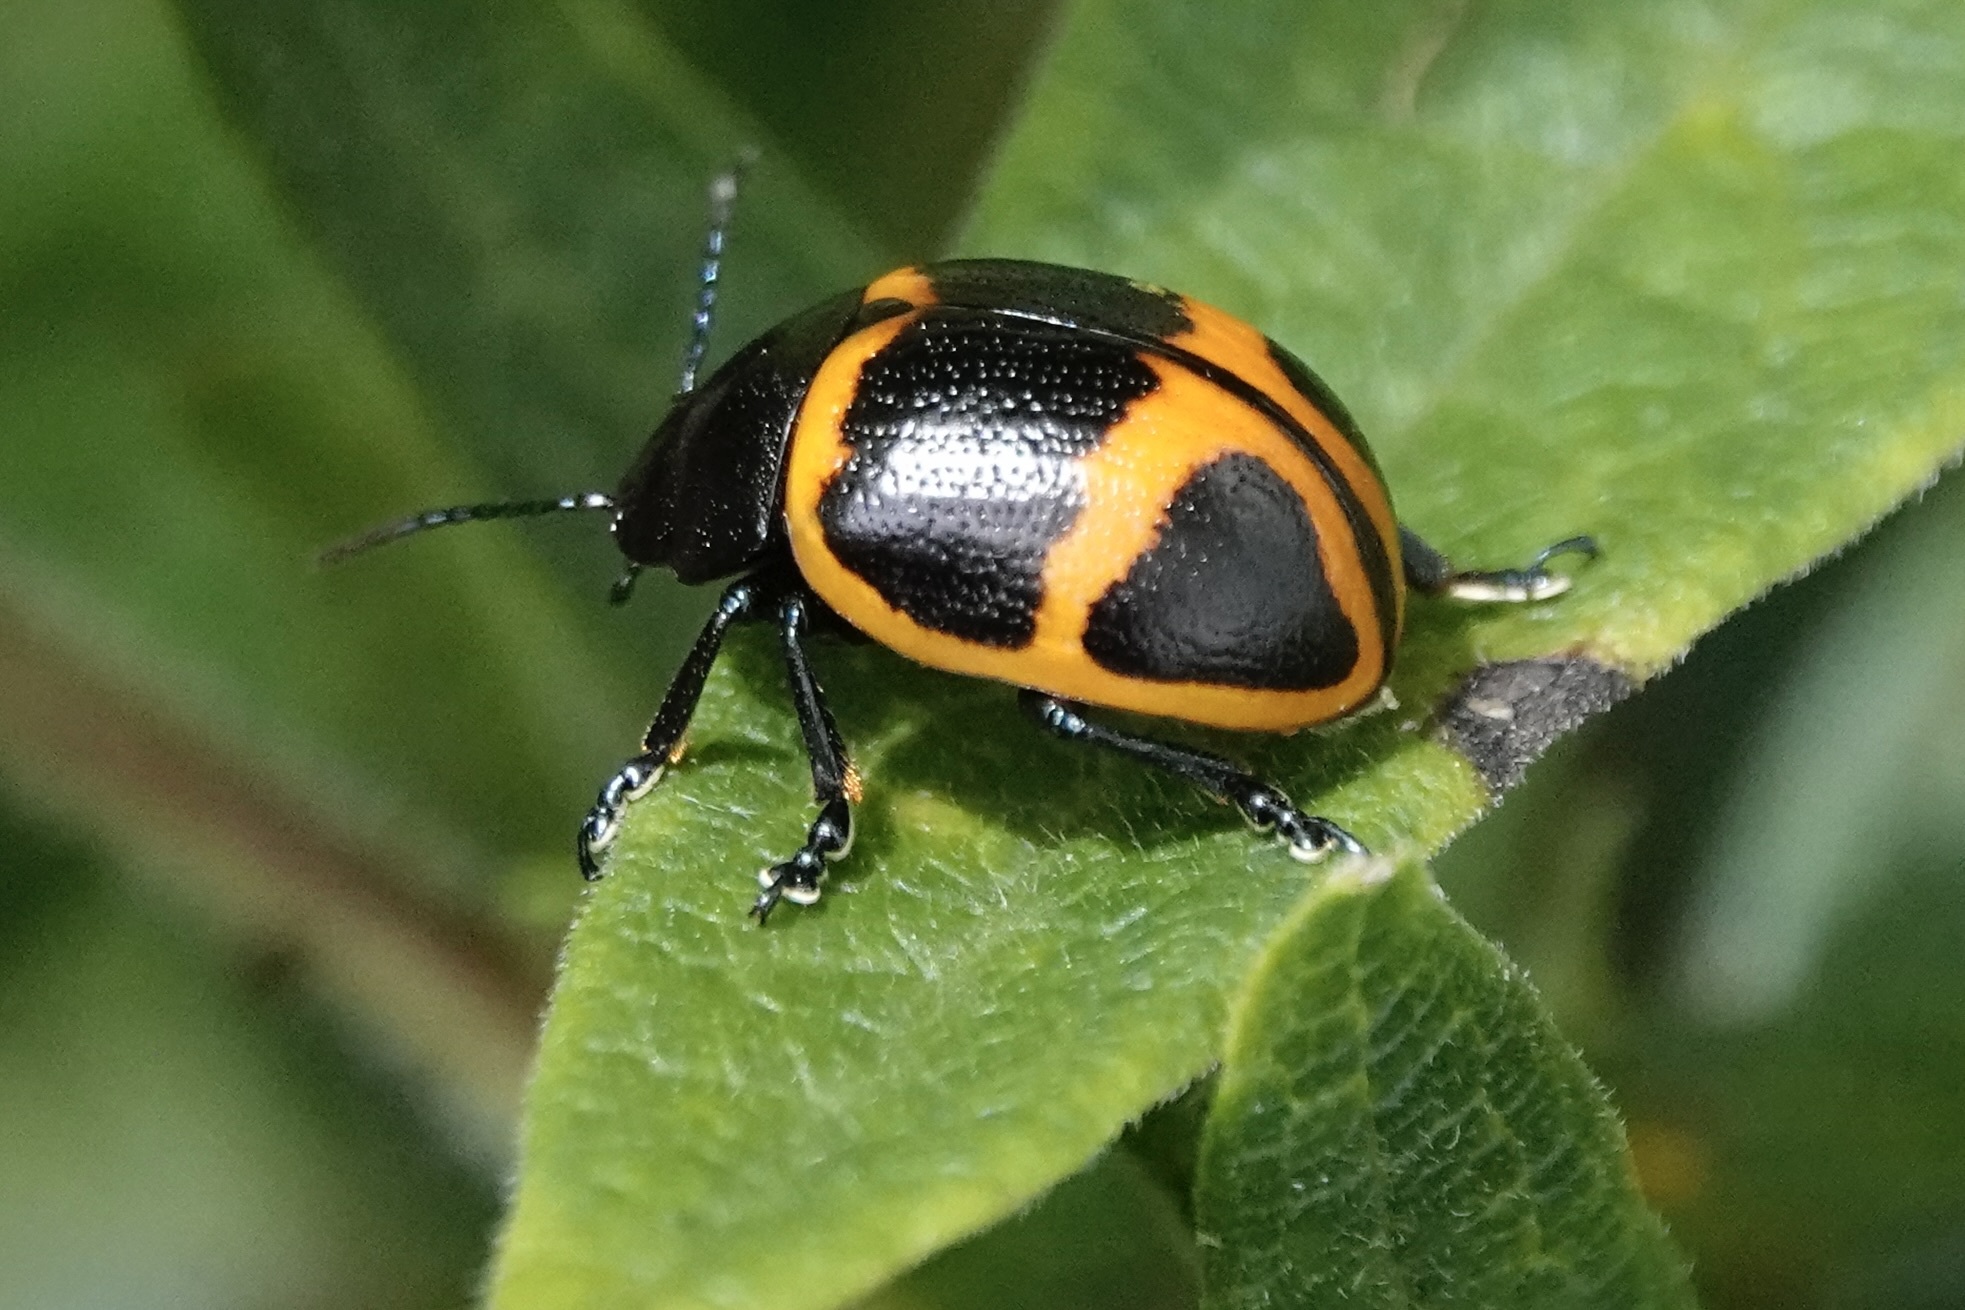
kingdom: Animalia
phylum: Arthropoda
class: Insecta
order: Coleoptera
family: Chrysomelidae
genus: Labidomera
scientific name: Labidomera clivicollis
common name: Swamp milkweed leaf beetle
